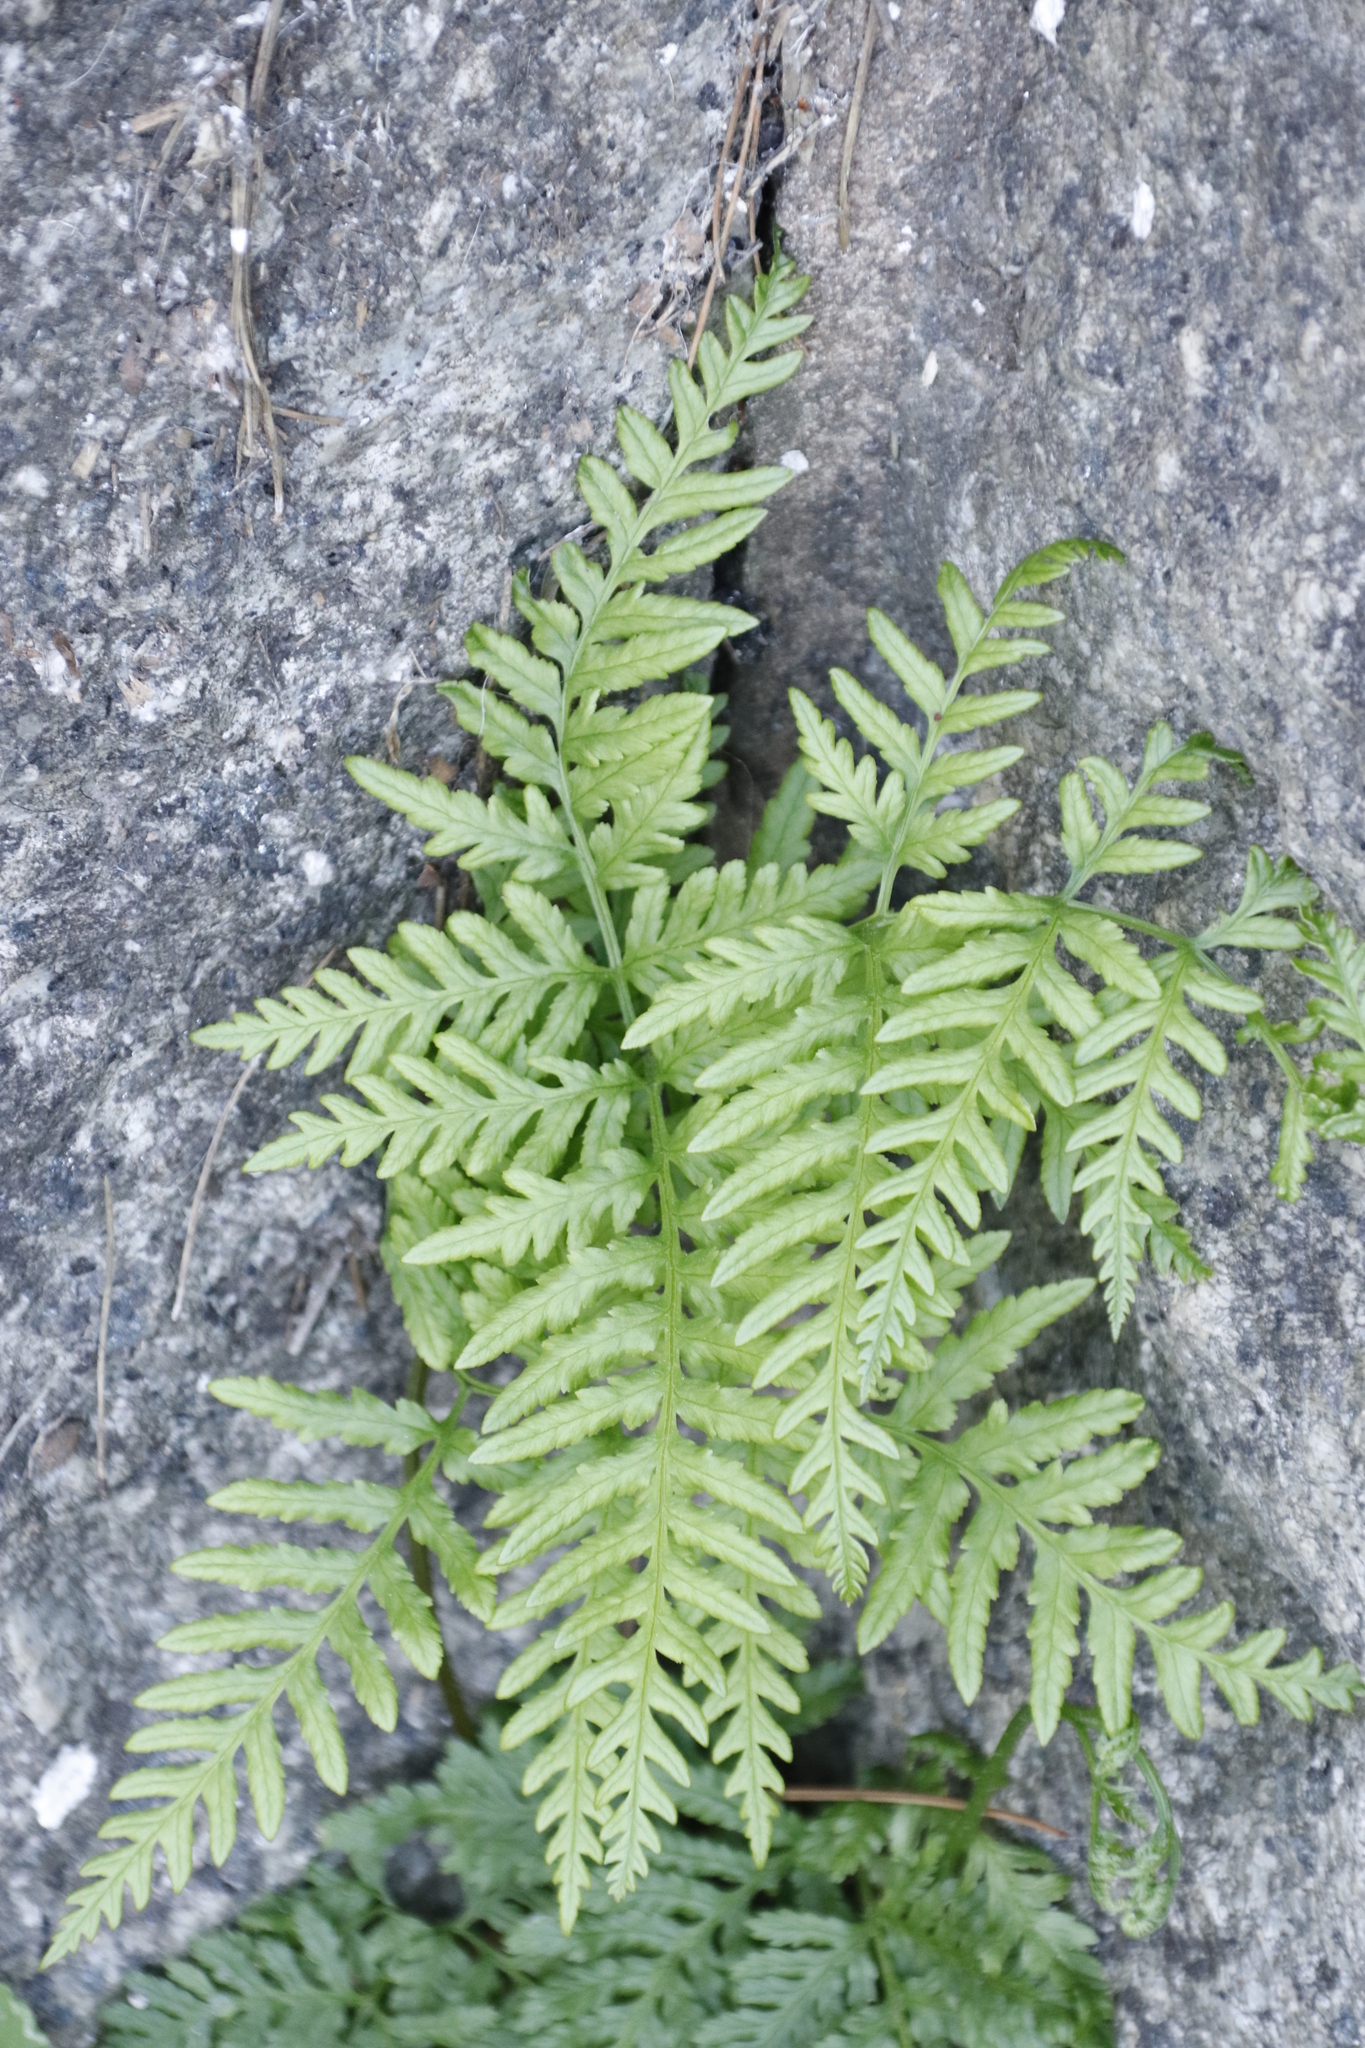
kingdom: Plantae
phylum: Tracheophyta
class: Polypodiopsida
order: Polypodiales
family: Pteridaceae
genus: Pteris
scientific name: Pteris tremula
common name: Australian brake
